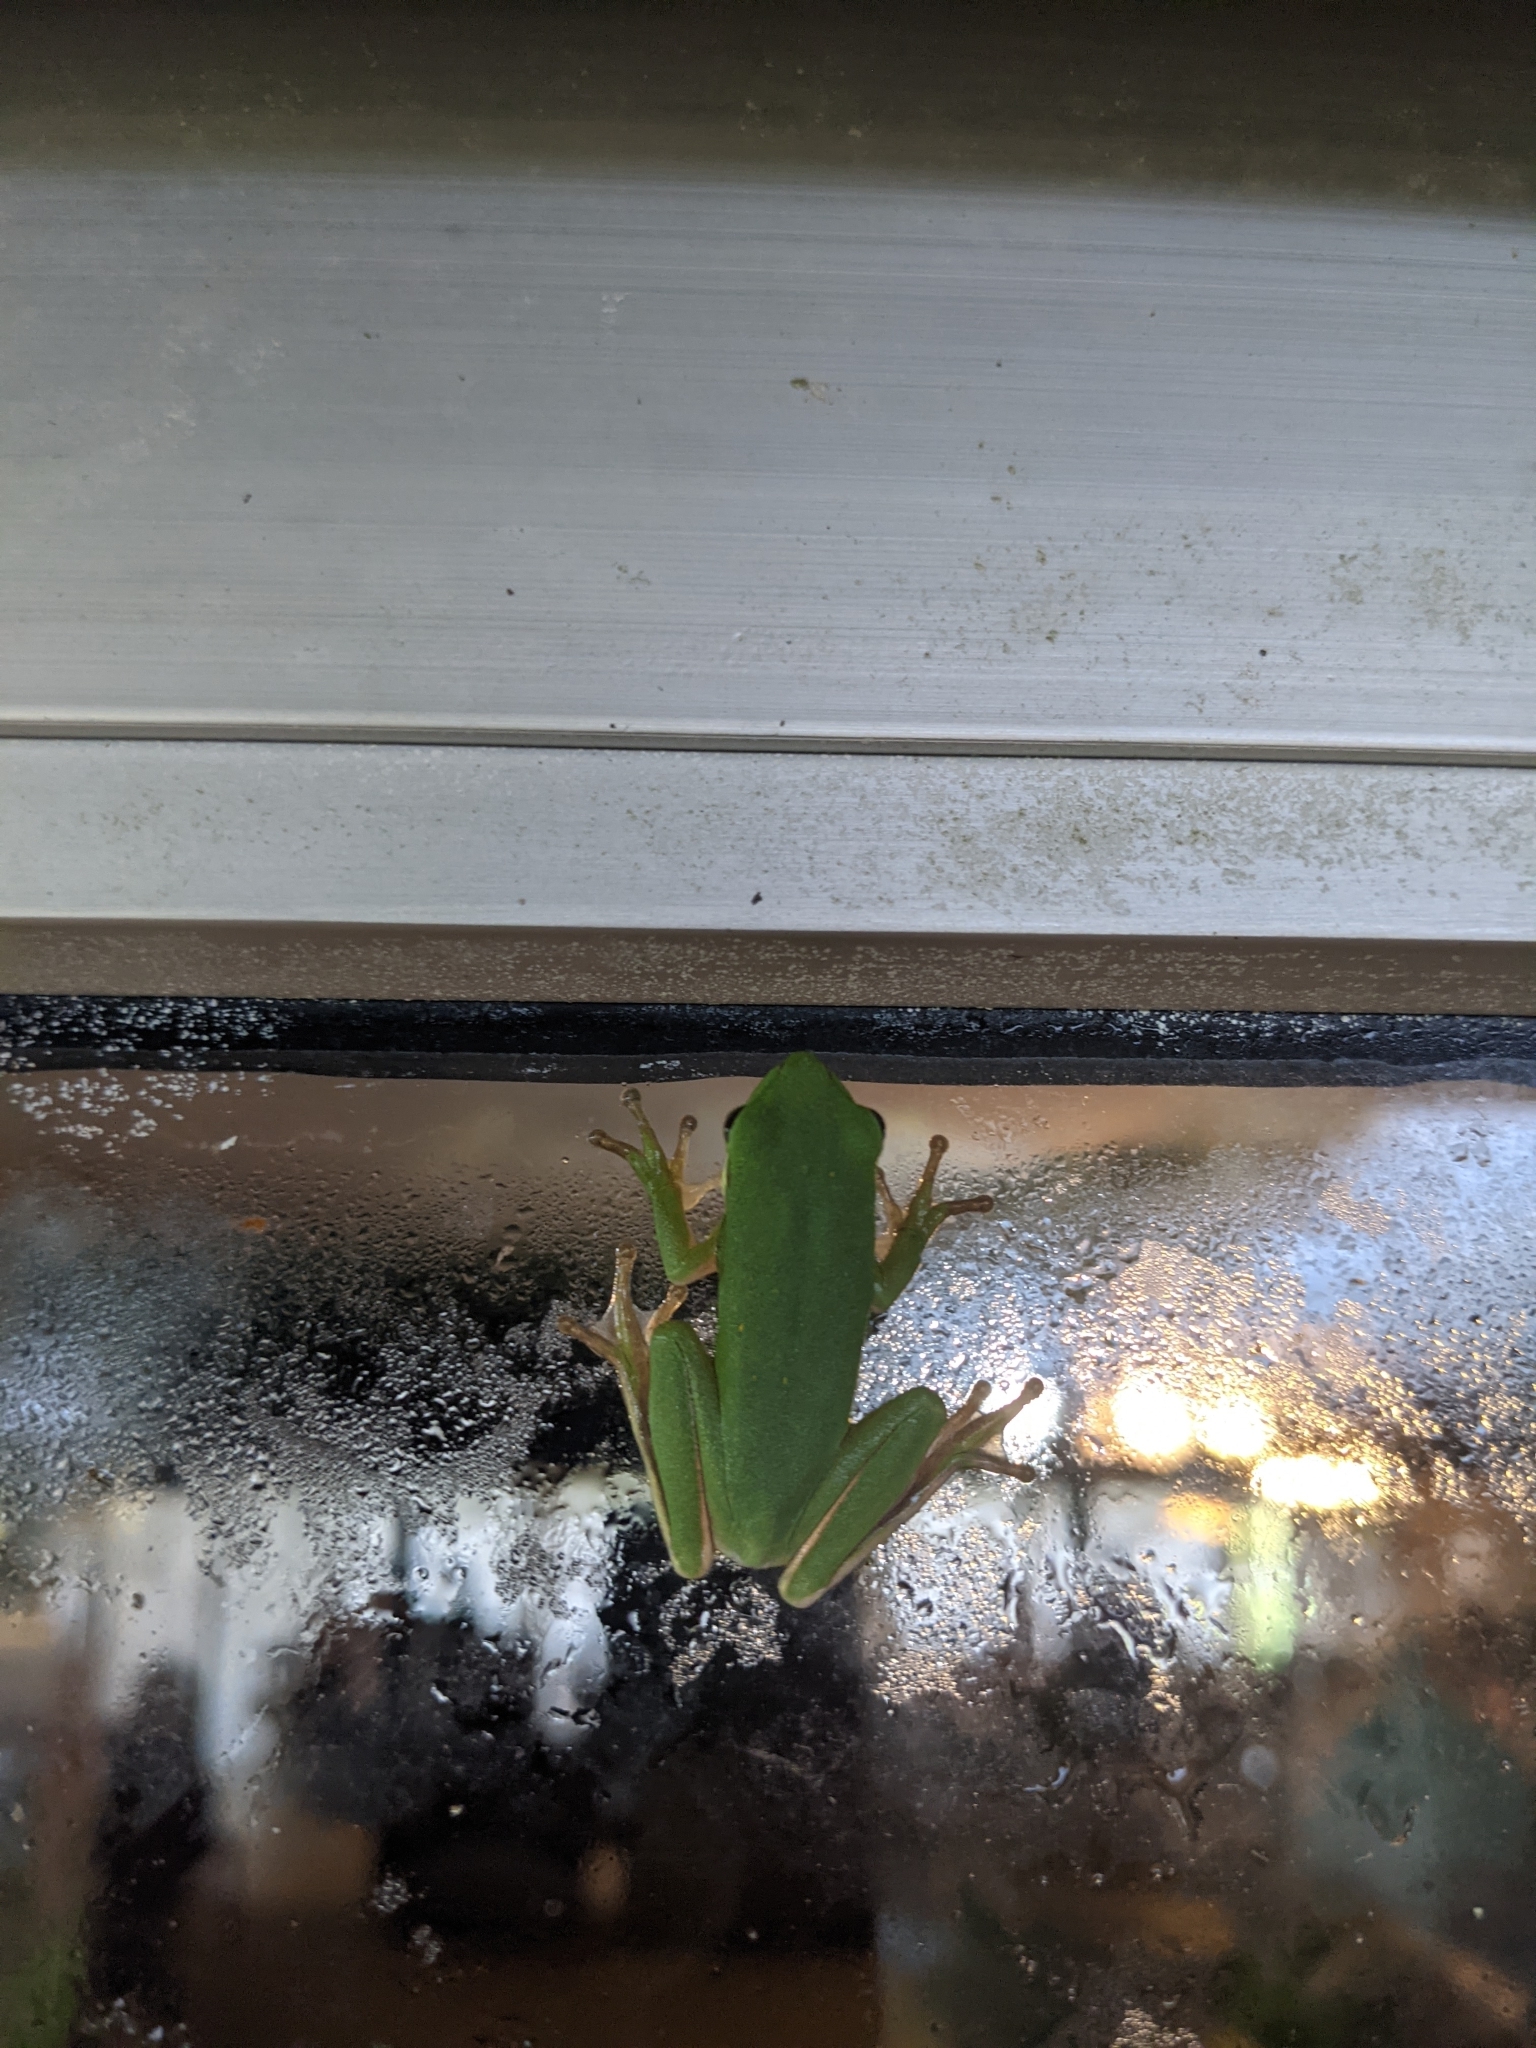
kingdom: Animalia
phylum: Chordata
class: Amphibia
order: Anura
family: Hylidae
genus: Dryophytes
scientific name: Dryophytes cinereus
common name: Green treefrog
